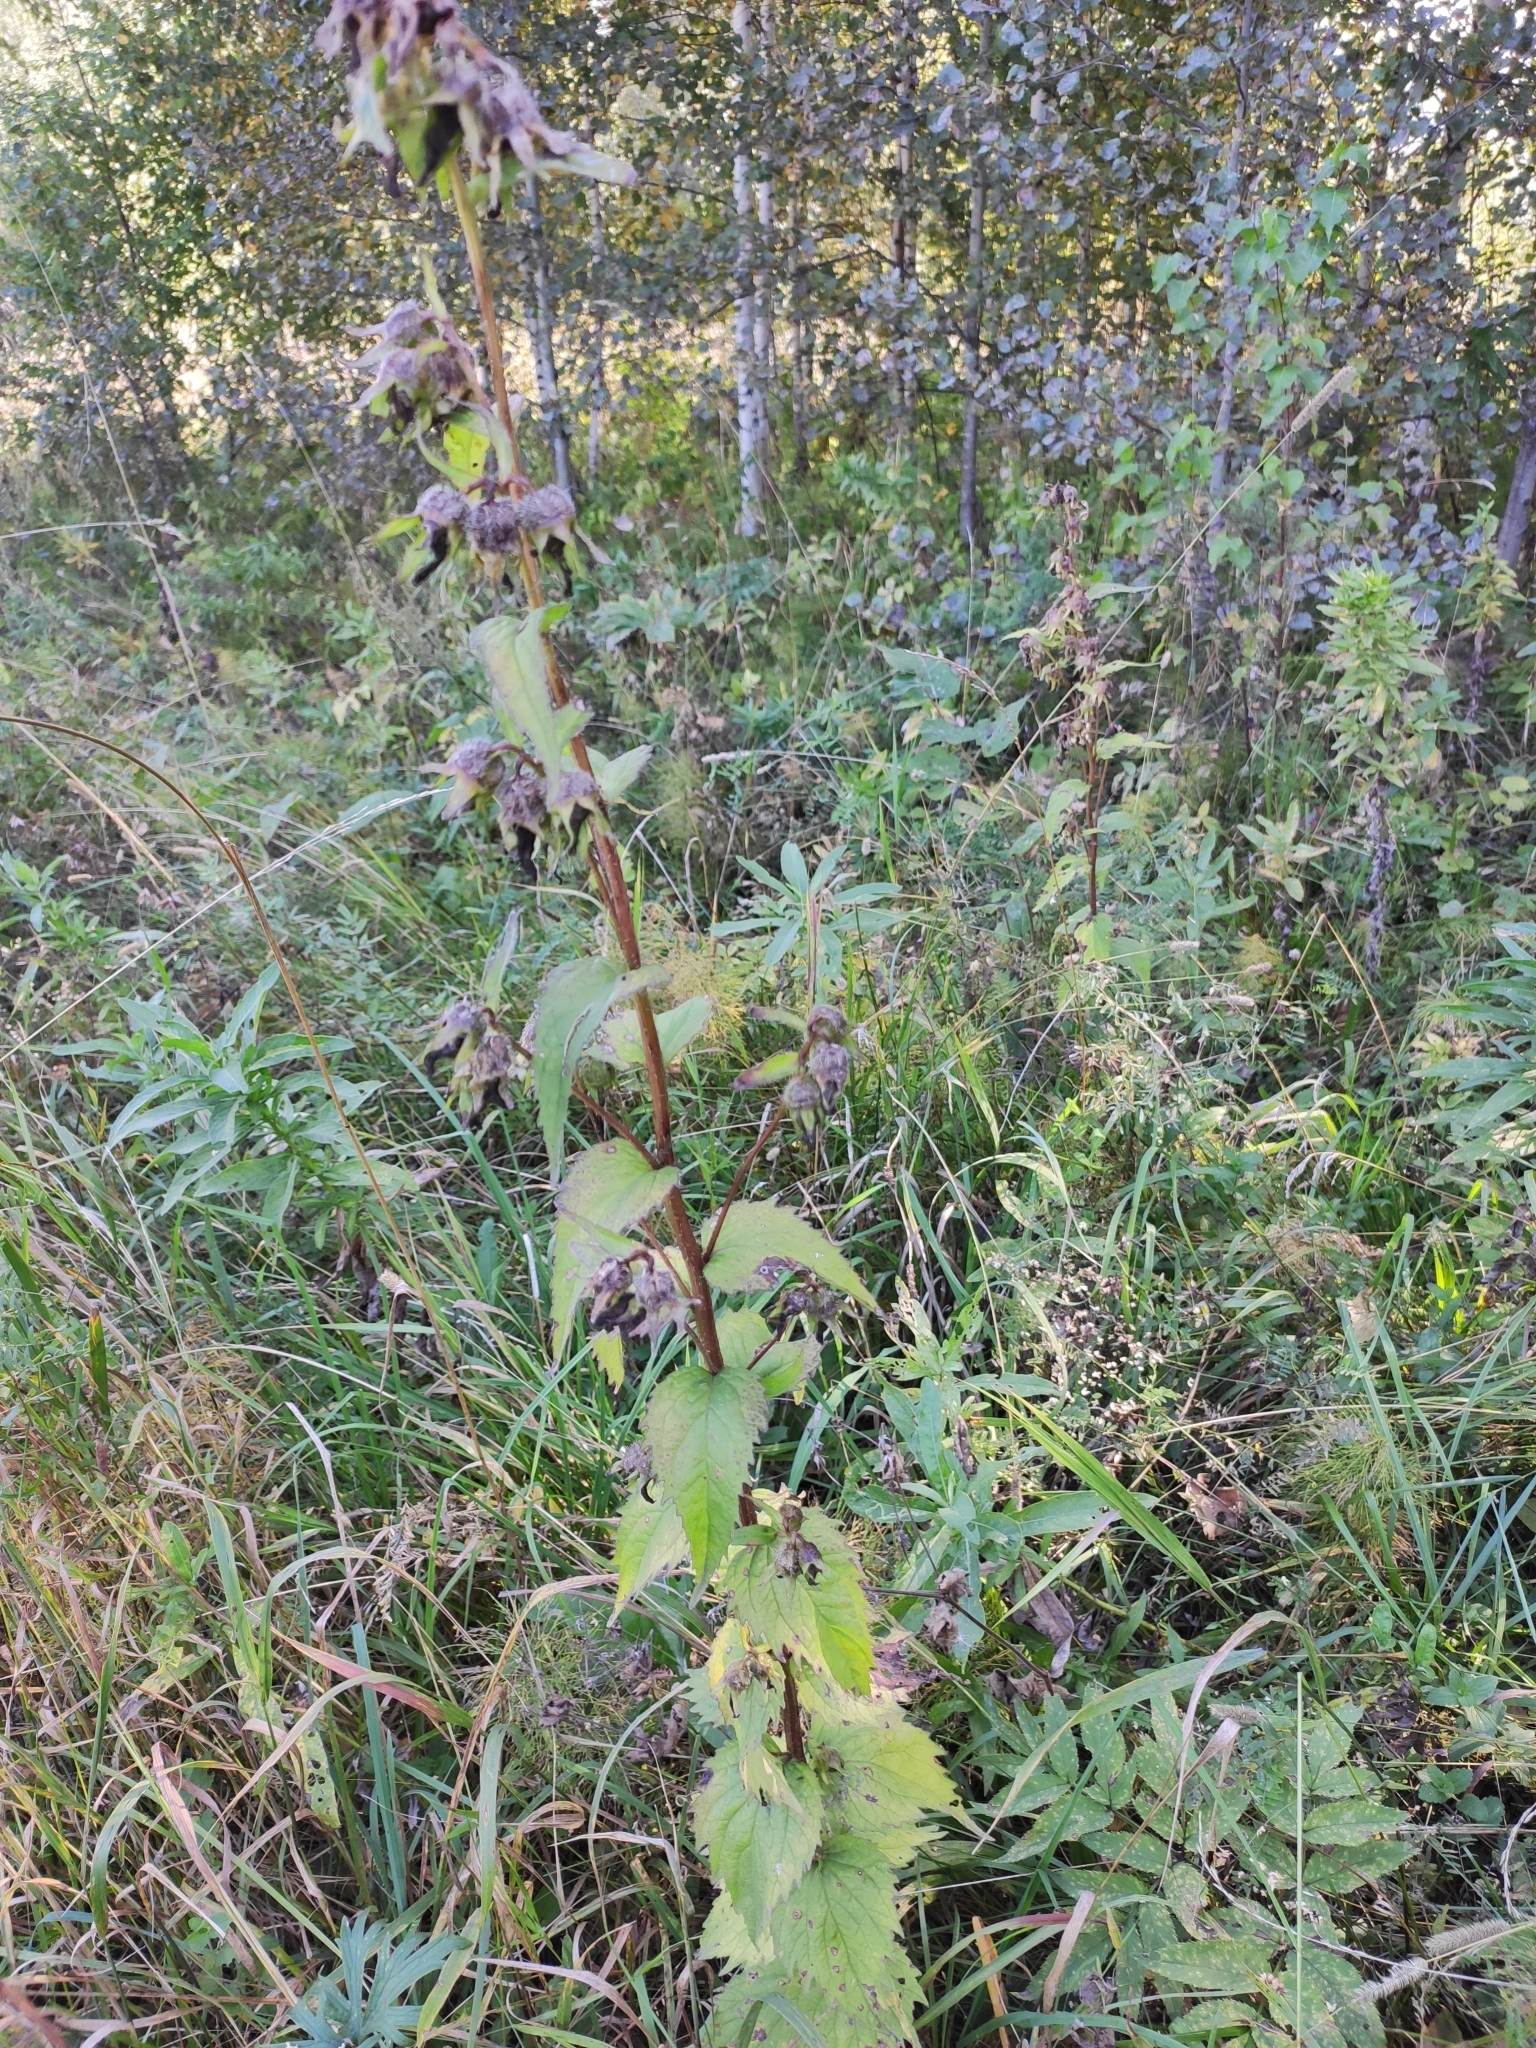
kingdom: Plantae
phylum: Tracheophyta
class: Magnoliopsida
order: Asterales
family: Campanulaceae
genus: Campanula
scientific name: Campanula trachelium
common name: Nettle-leaved bellflower
